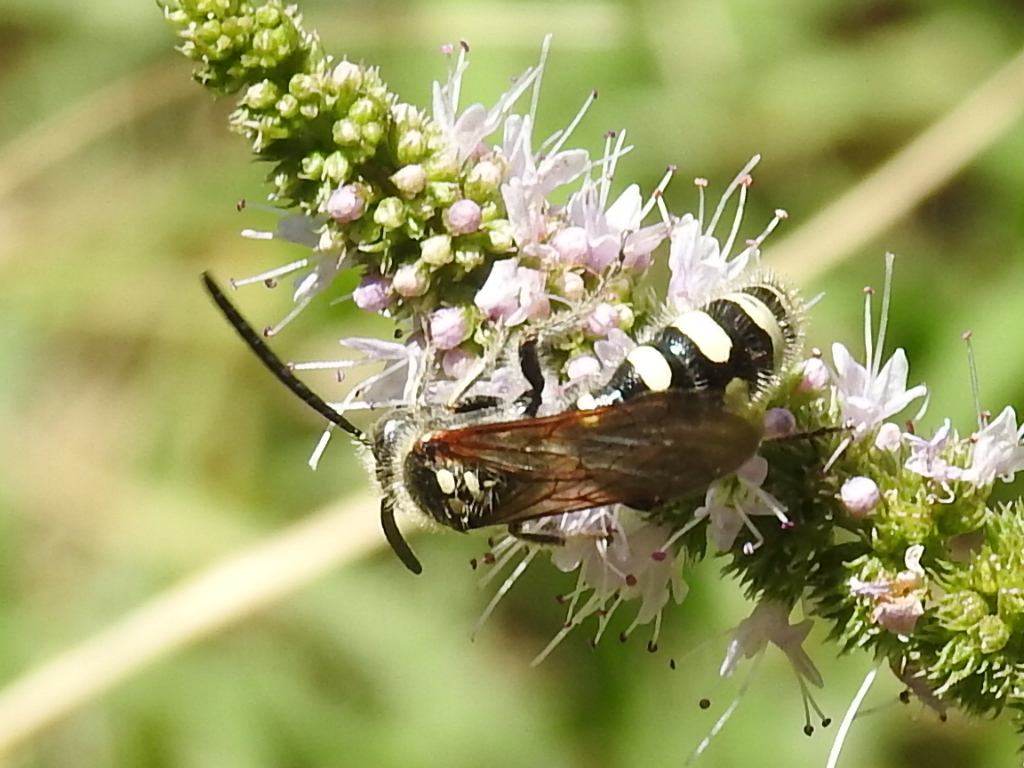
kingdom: Animalia
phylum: Arthropoda
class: Insecta
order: Hymenoptera
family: Vespidae
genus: Vespa
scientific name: Vespa sexmaculata
